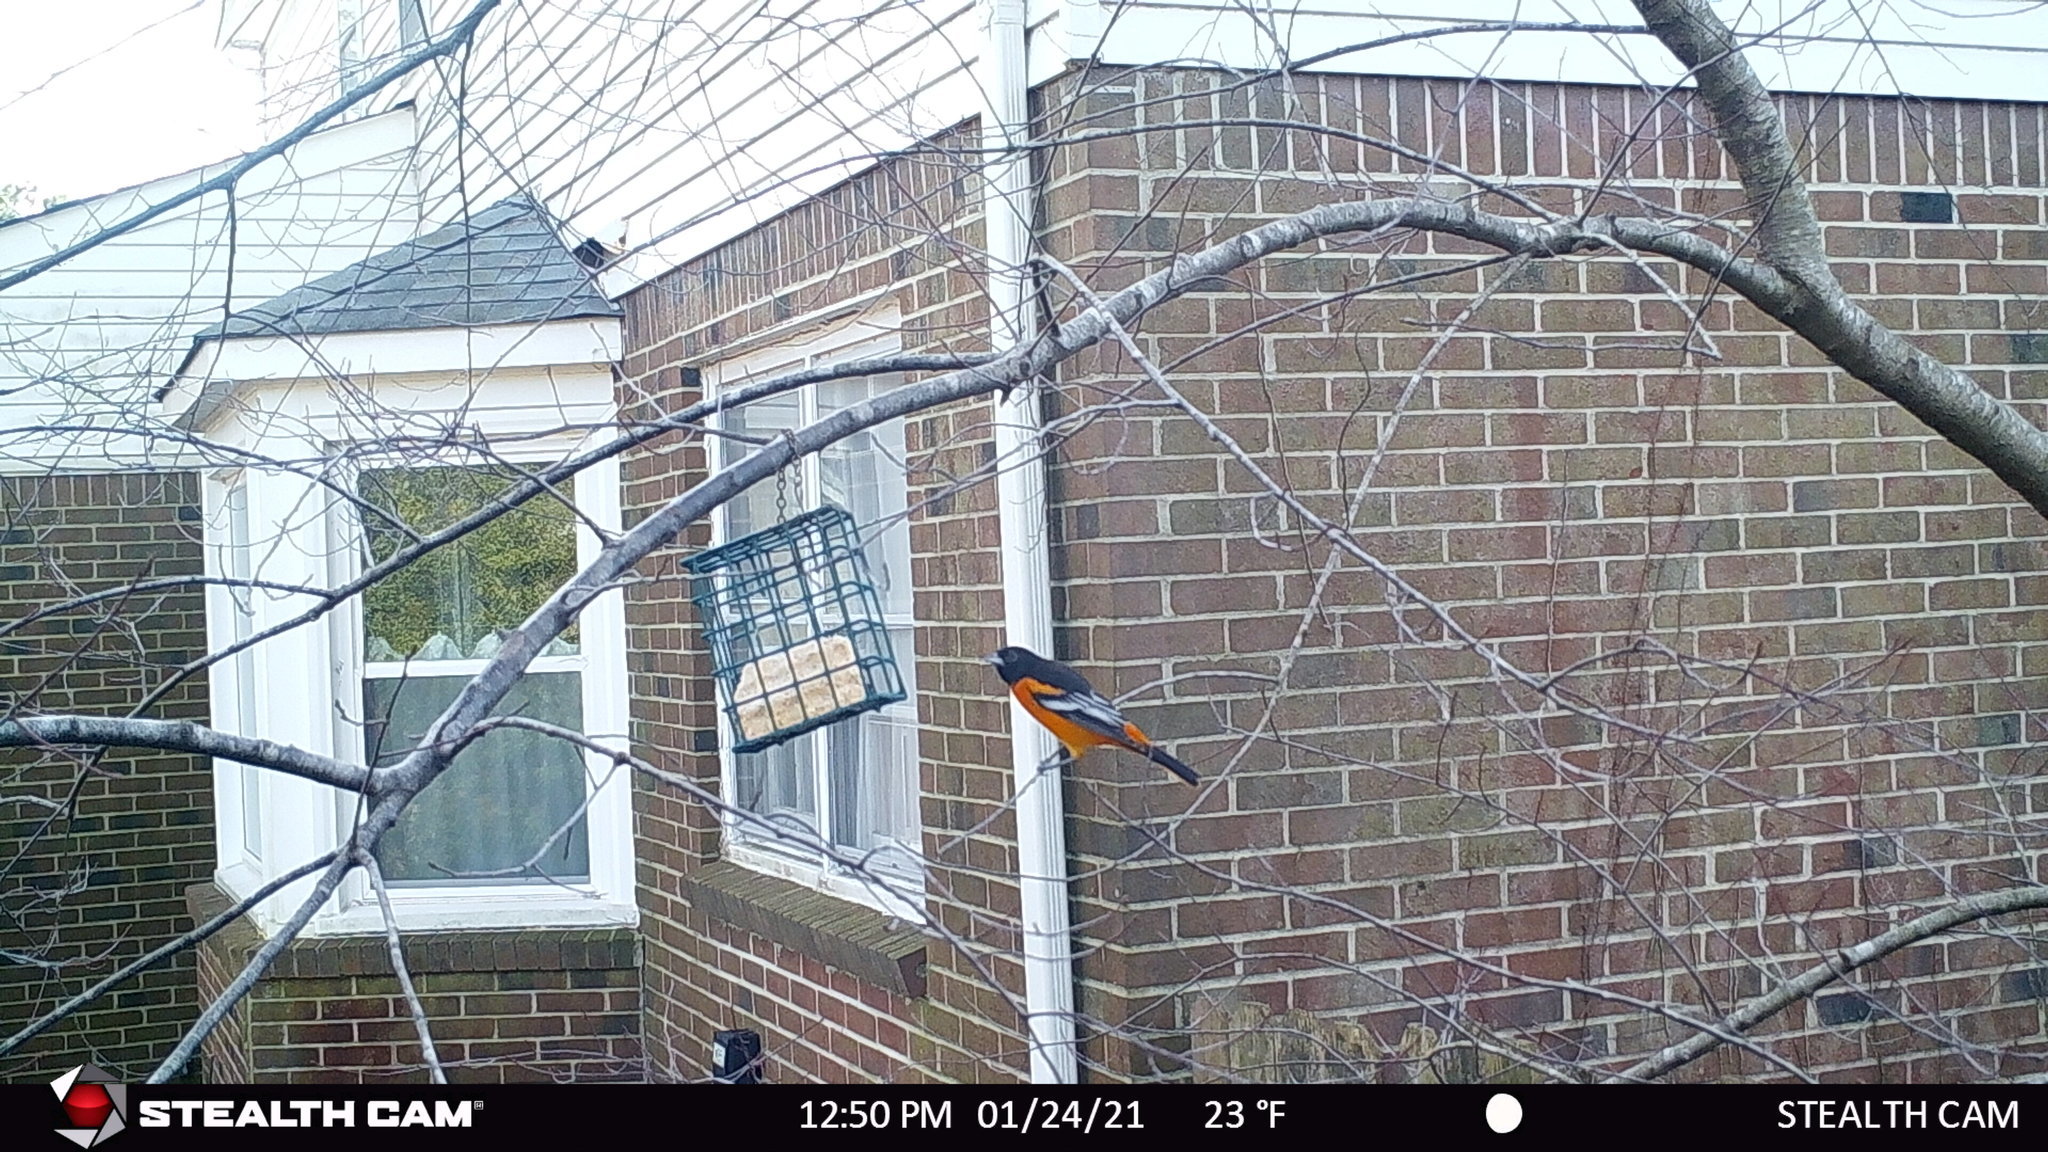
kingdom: Animalia
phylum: Chordata
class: Aves
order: Passeriformes
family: Icteridae
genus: Icterus
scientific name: Icterus galbula
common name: Baltimore oriole
